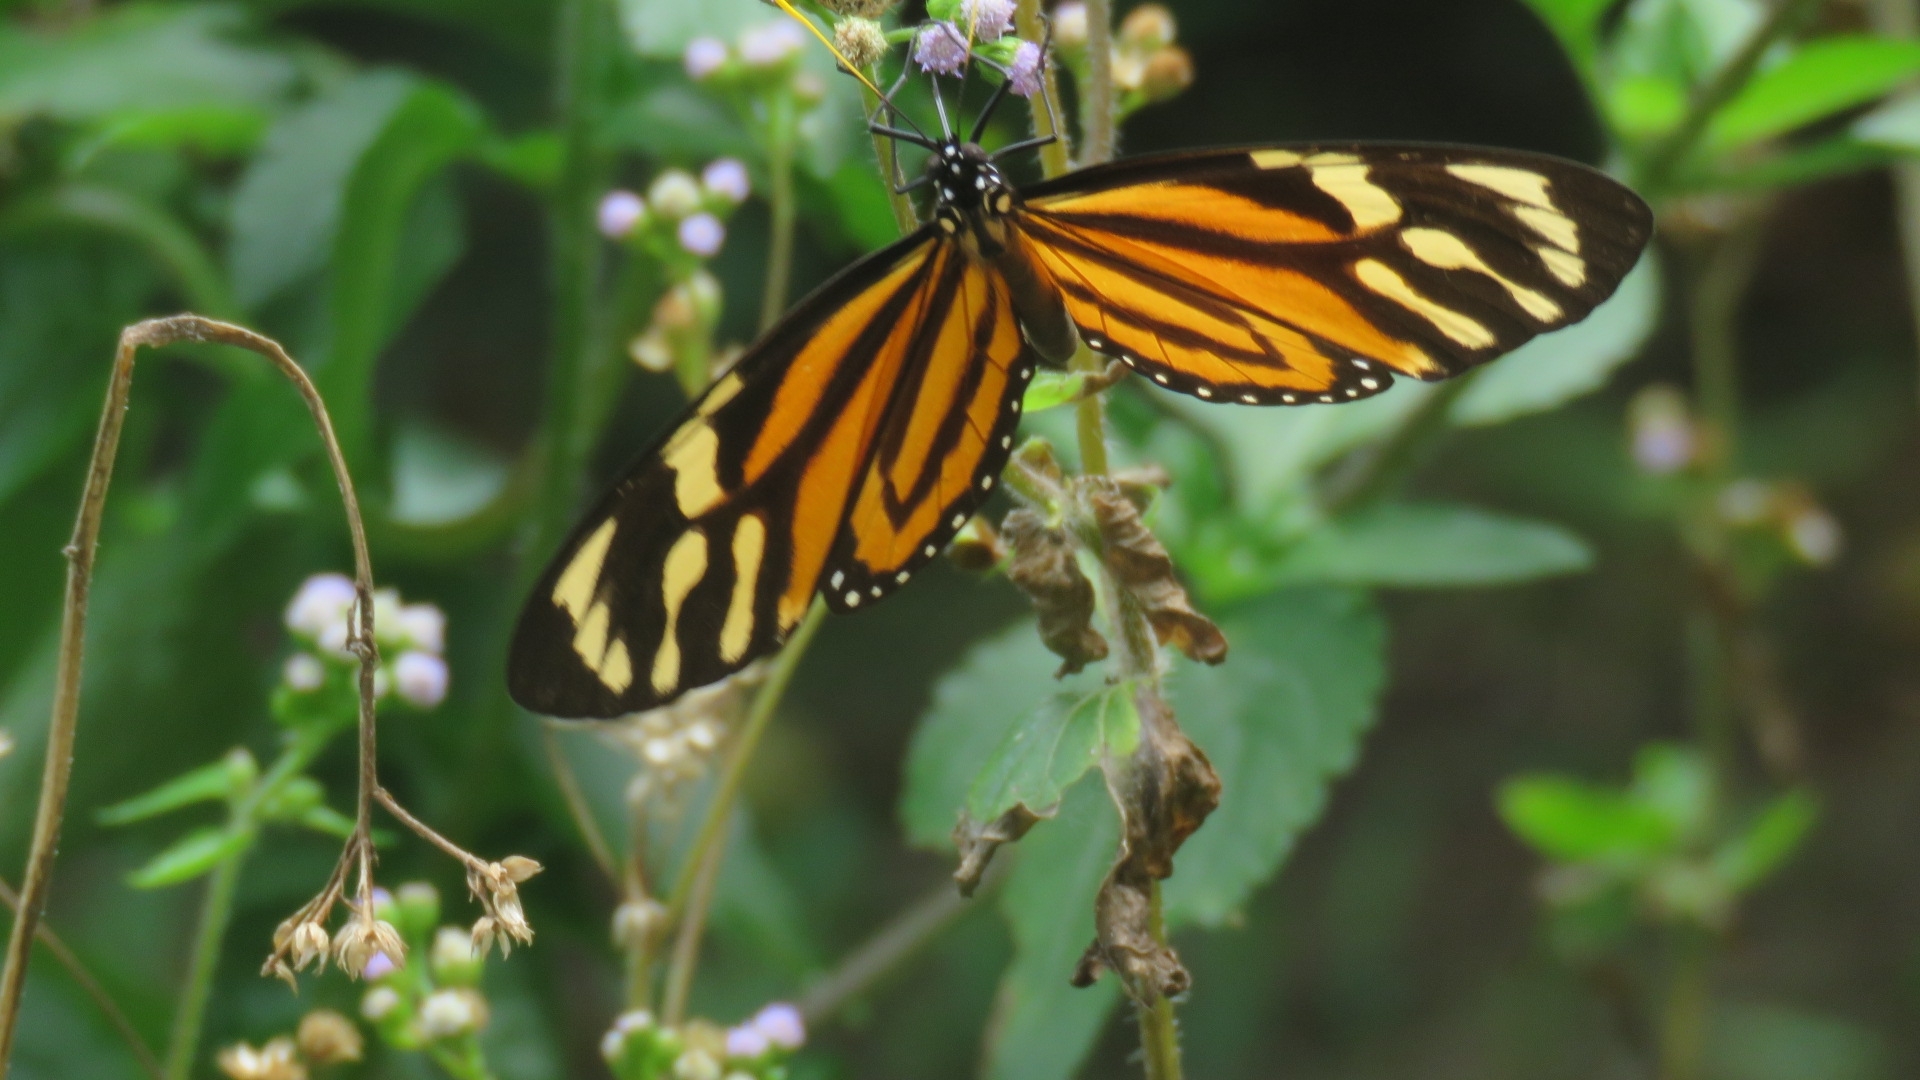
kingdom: Animalia
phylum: Arthropoda
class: Insecta
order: Lepidoptera
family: Nymphalidae
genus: Lycorea
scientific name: Lycorea cleobaea
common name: Tiger mimic-queen
